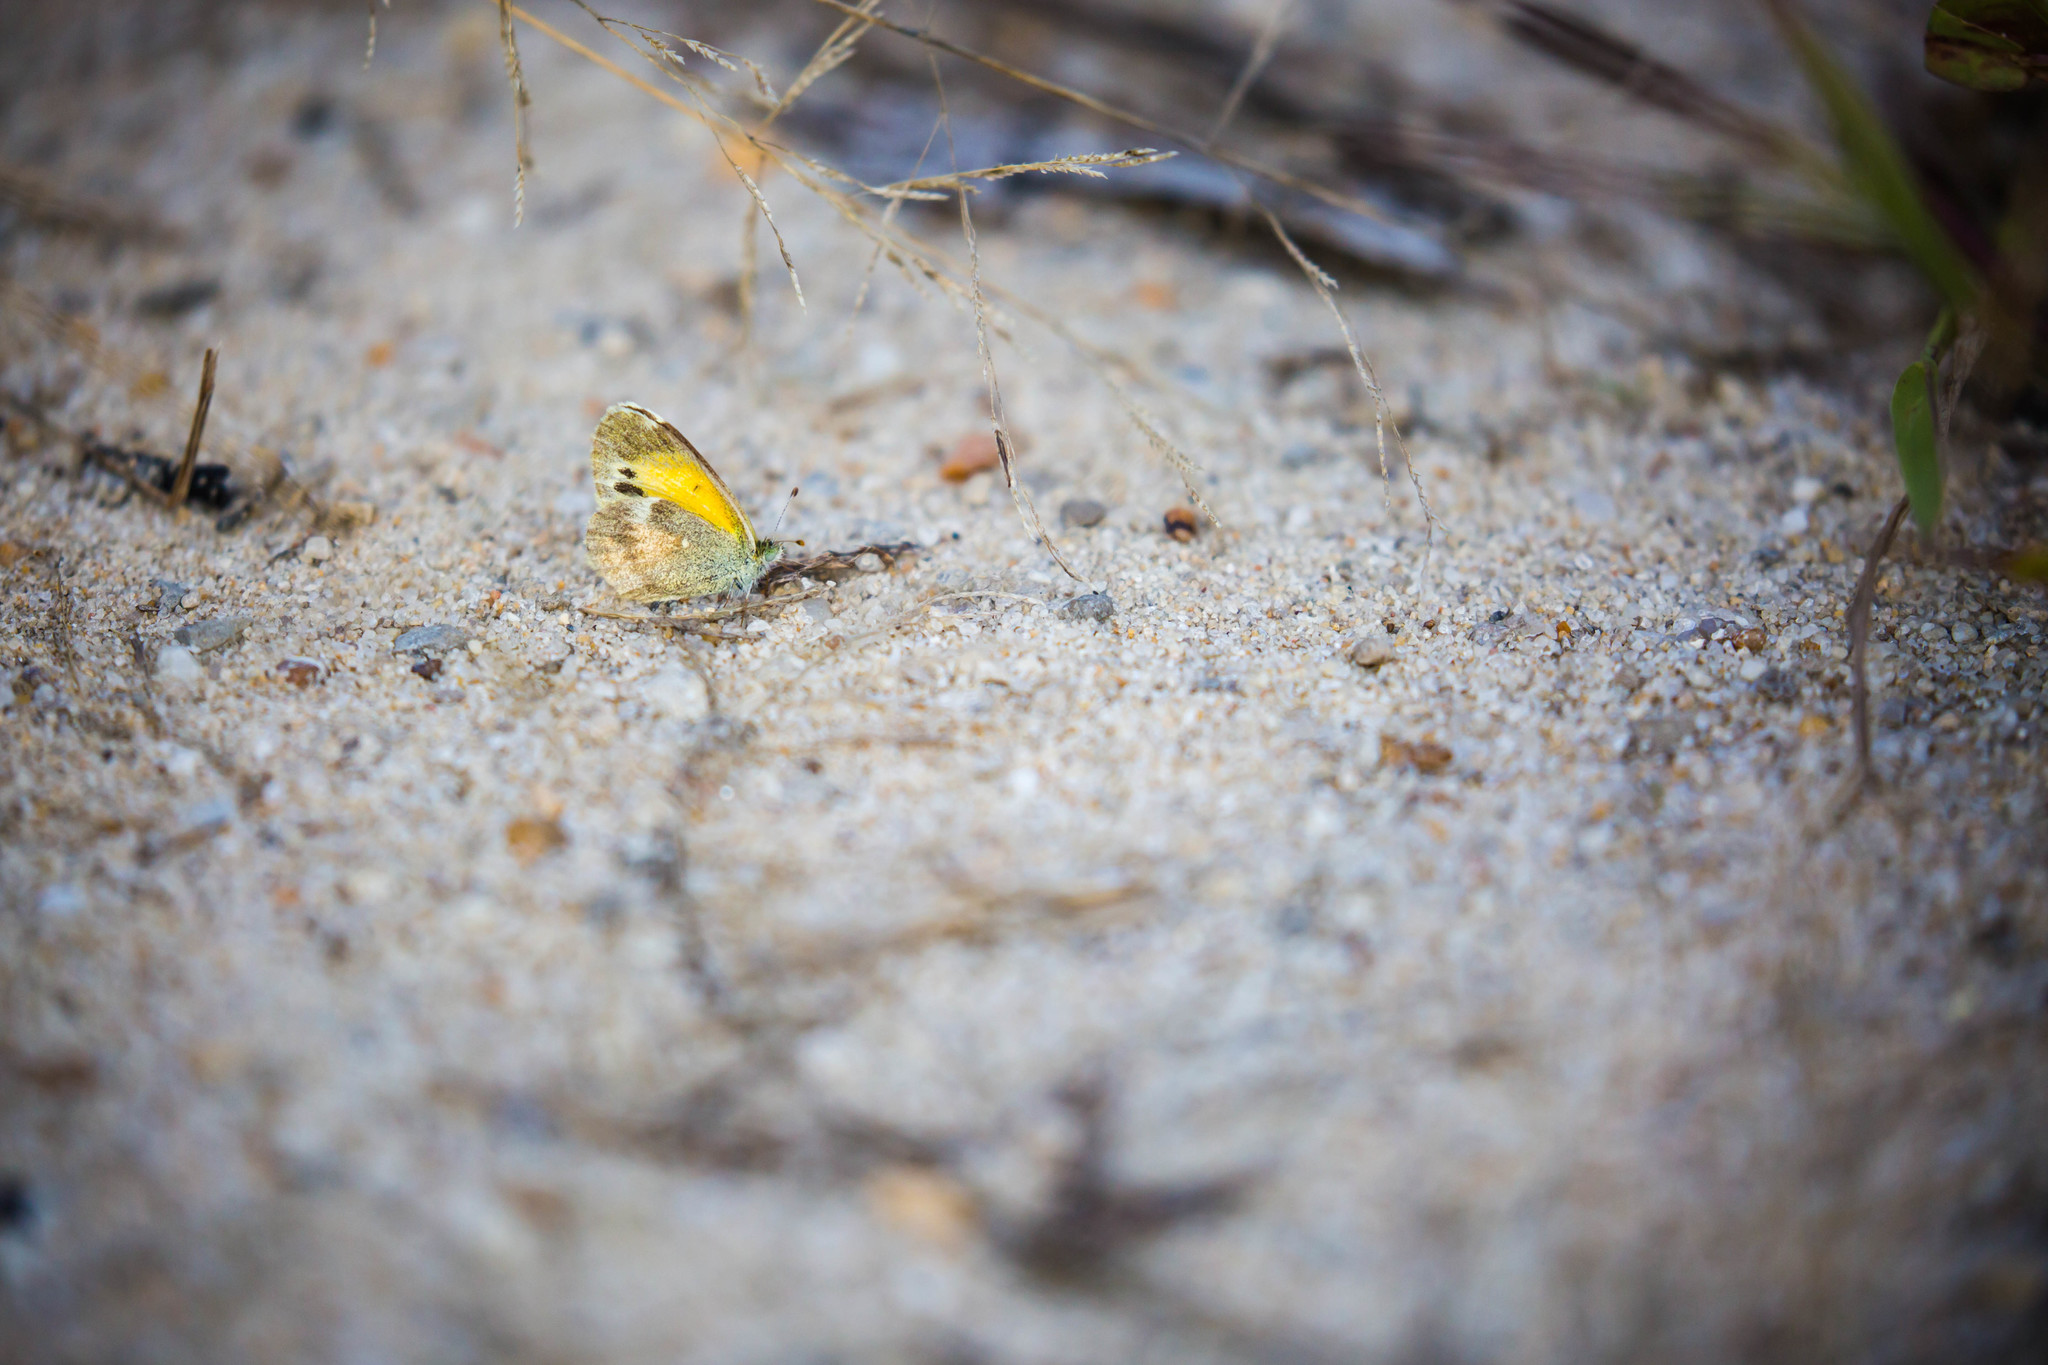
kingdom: Animalia
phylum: Arthropoda
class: Insecta
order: Lepidoptera
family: Pieridae
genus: Nathalis
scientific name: Nathalis iole
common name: Dainty sulphur
